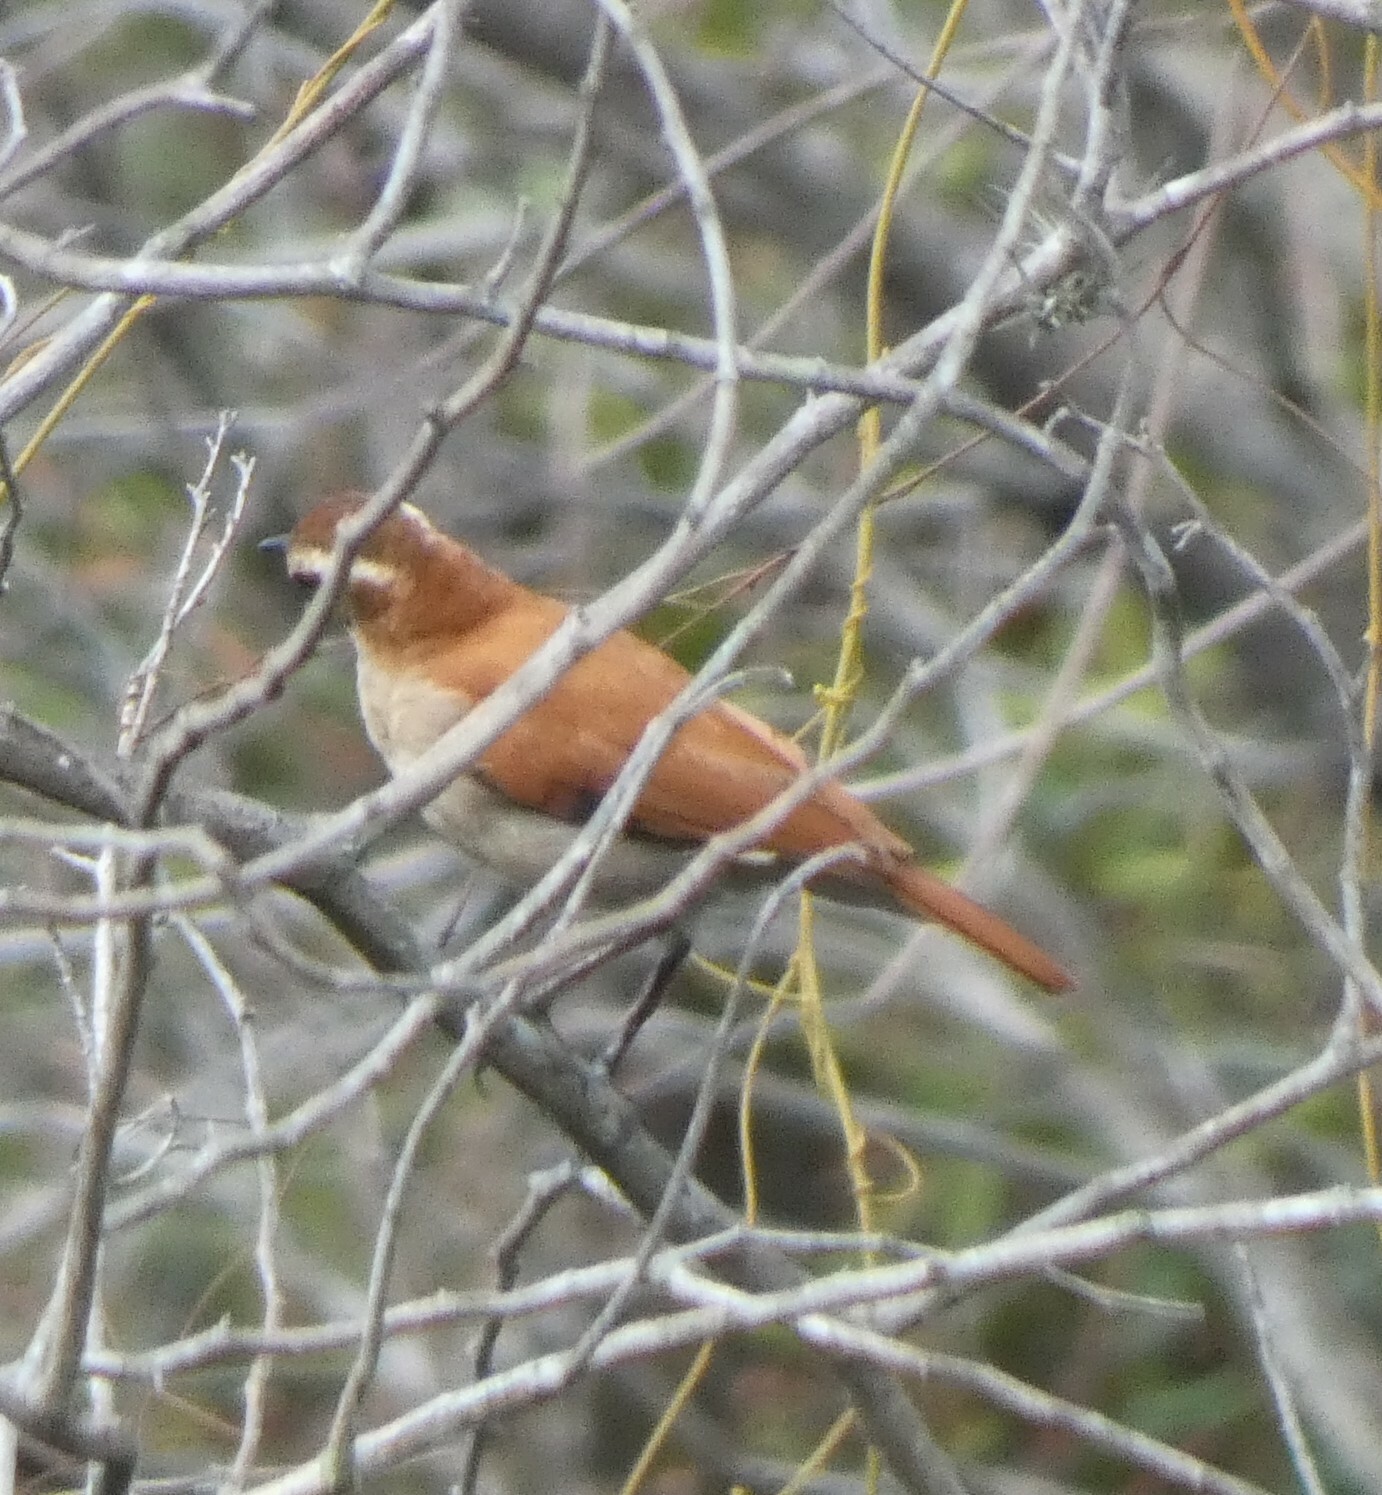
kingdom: Animalia
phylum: Chordata
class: Aves
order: Passeriformes
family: Furnariidae
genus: Furnarius
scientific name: Furnarius figulus
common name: Band-tailed hornero
